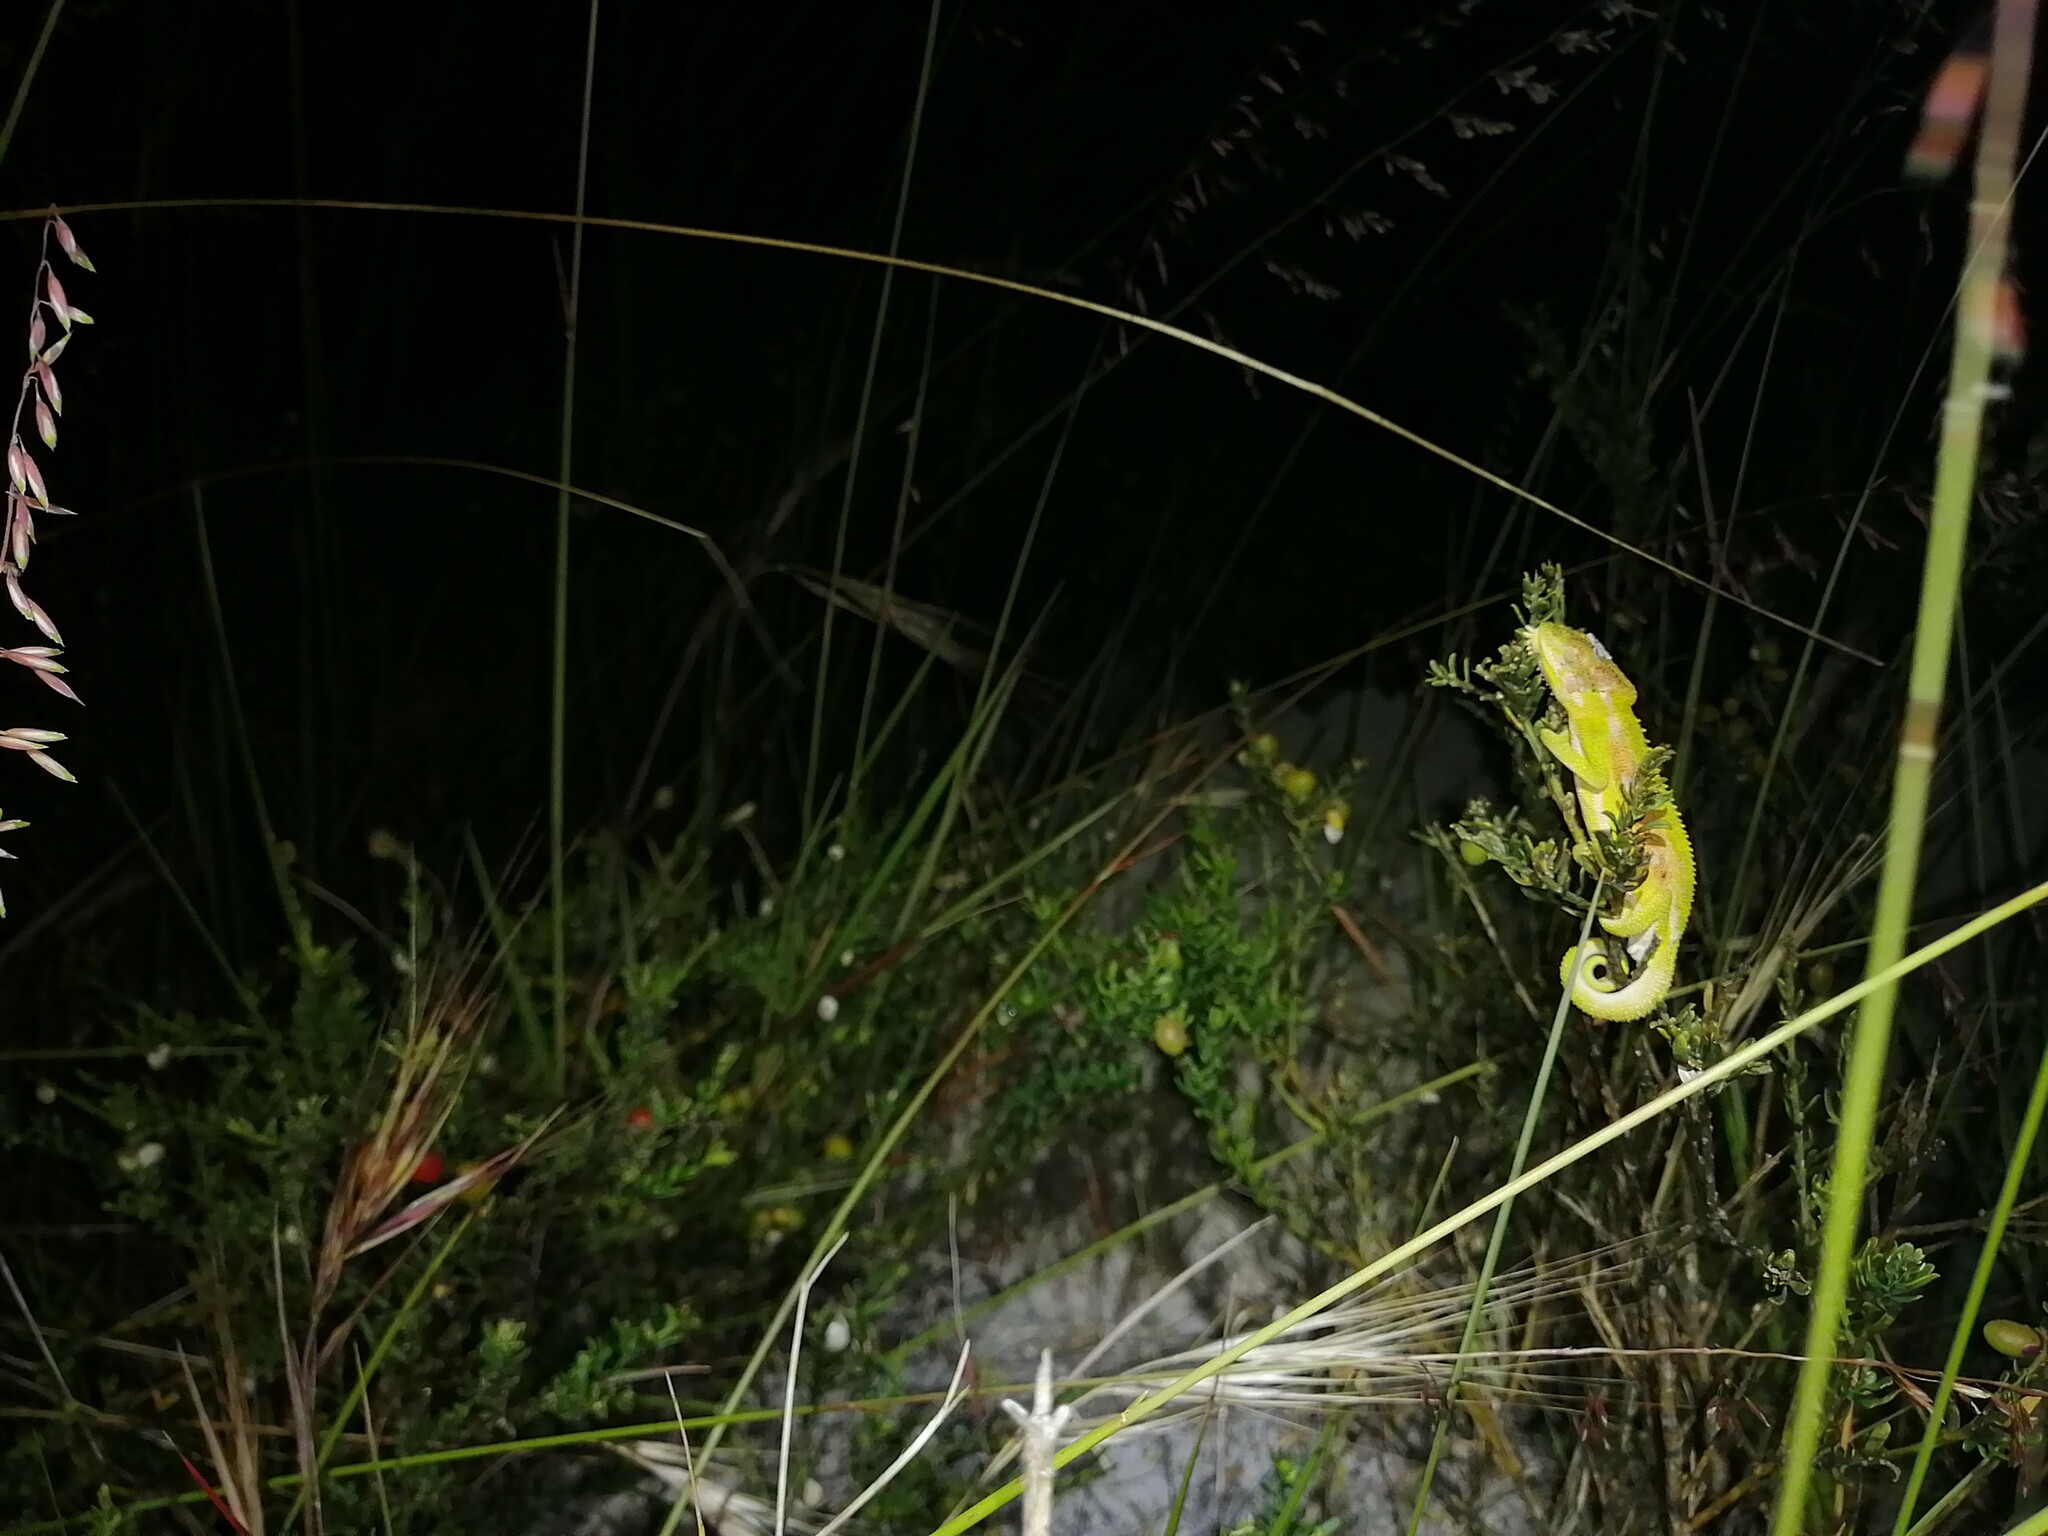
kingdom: Animalia
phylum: Chordata
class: Squamata
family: Chamaeleonidae
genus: Bradypodion
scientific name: Bradypodion pumilum
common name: Cape dwarf chameleon
